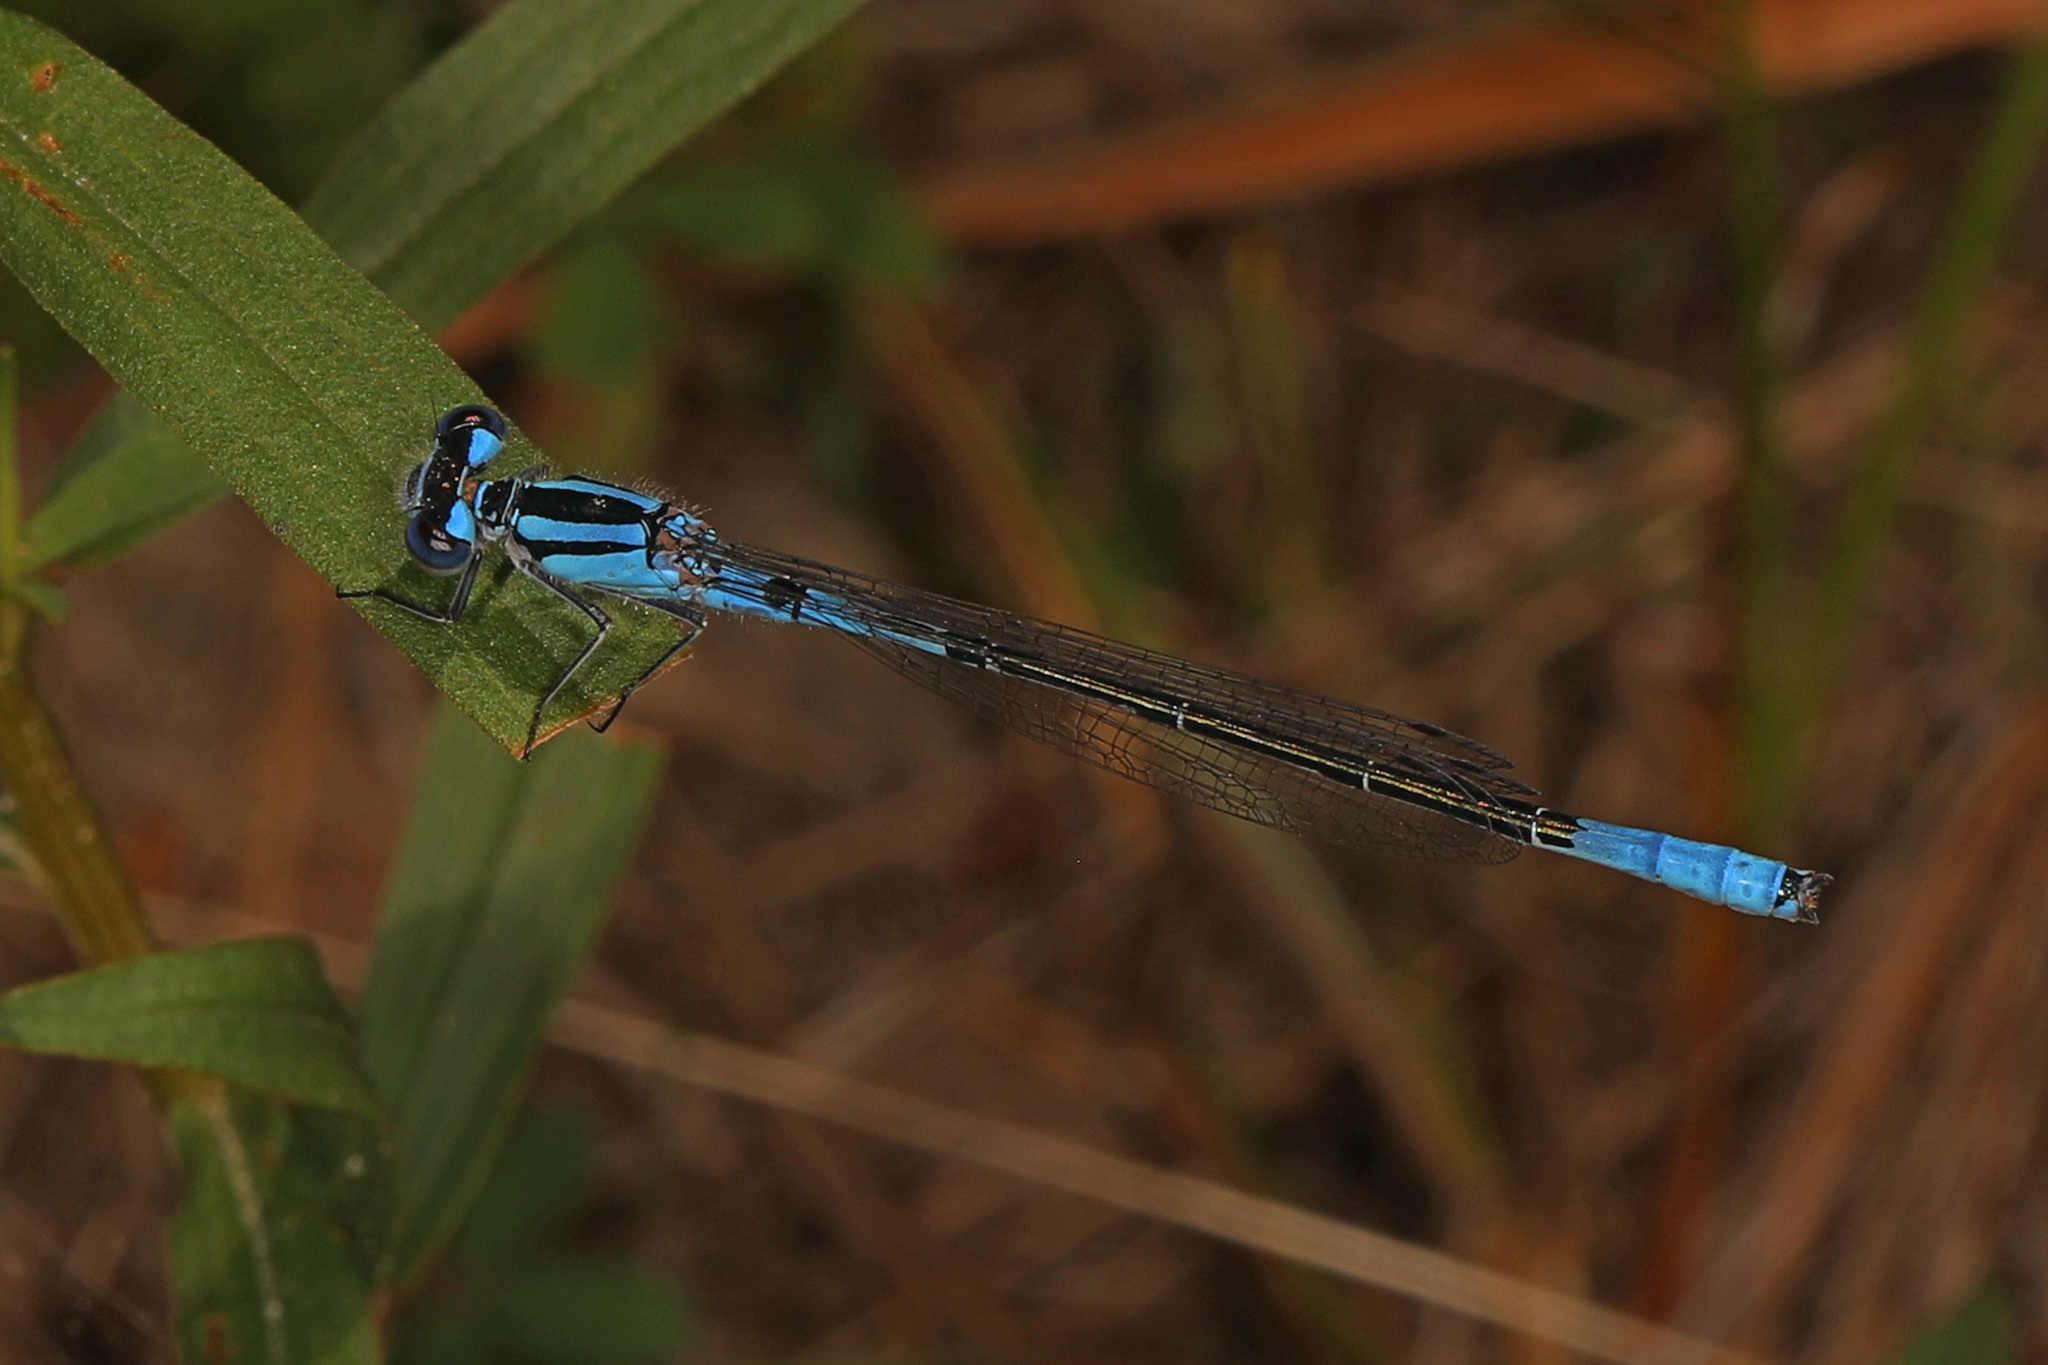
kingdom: Animalia
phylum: Arthropoda
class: Insecta
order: Odonata
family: Coenagrionidae
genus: Enallagma
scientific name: Enallagma aspersum
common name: Azure bluet
